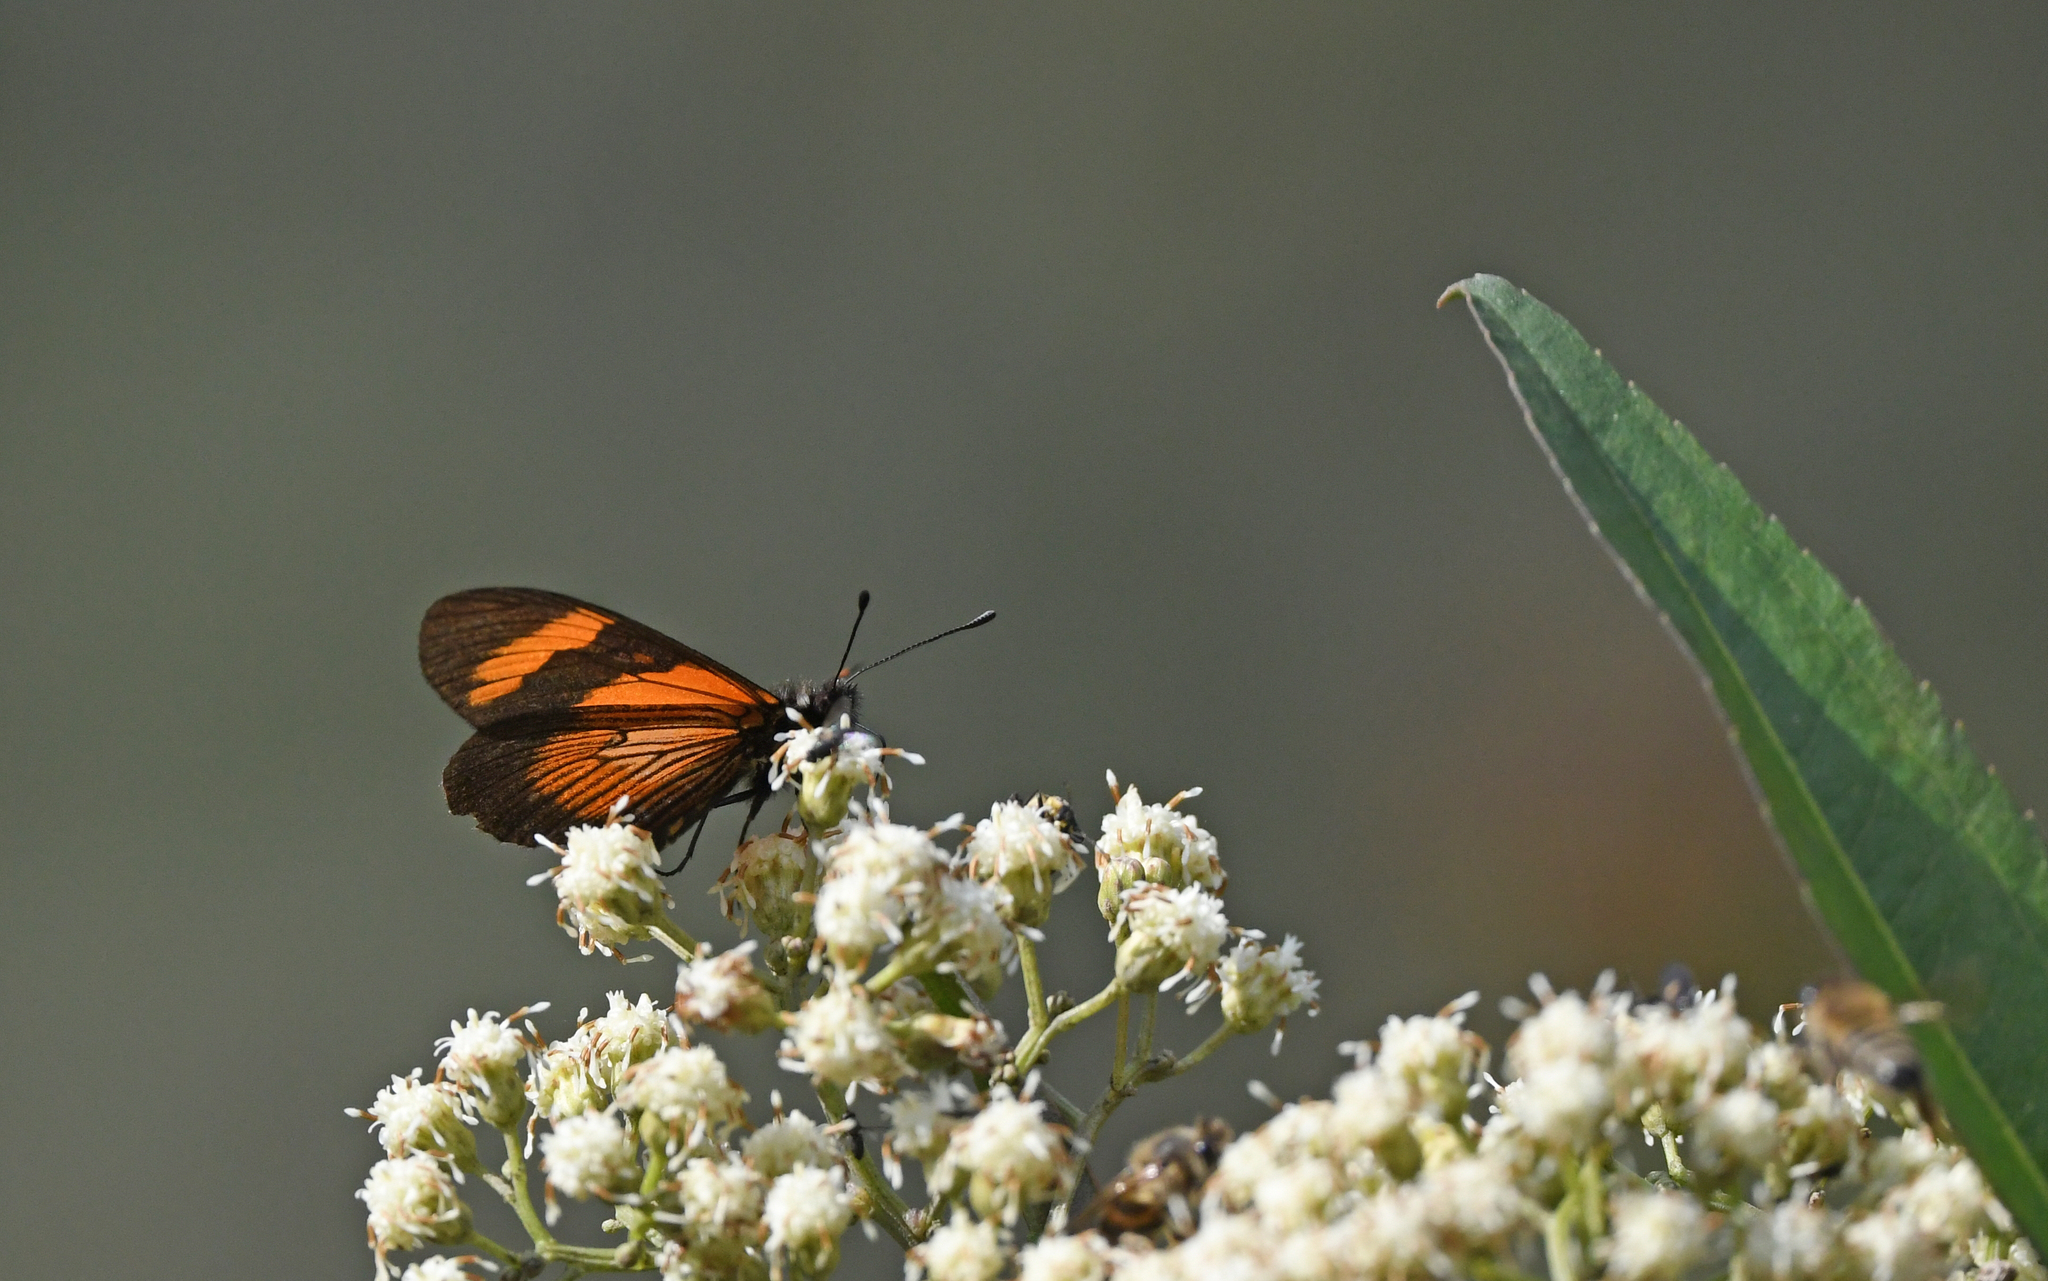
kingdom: Animalia
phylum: Arthropoda
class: Insecta
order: Lepidoptera
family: Nymphalidae
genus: Actinote
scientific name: Actinote negra
